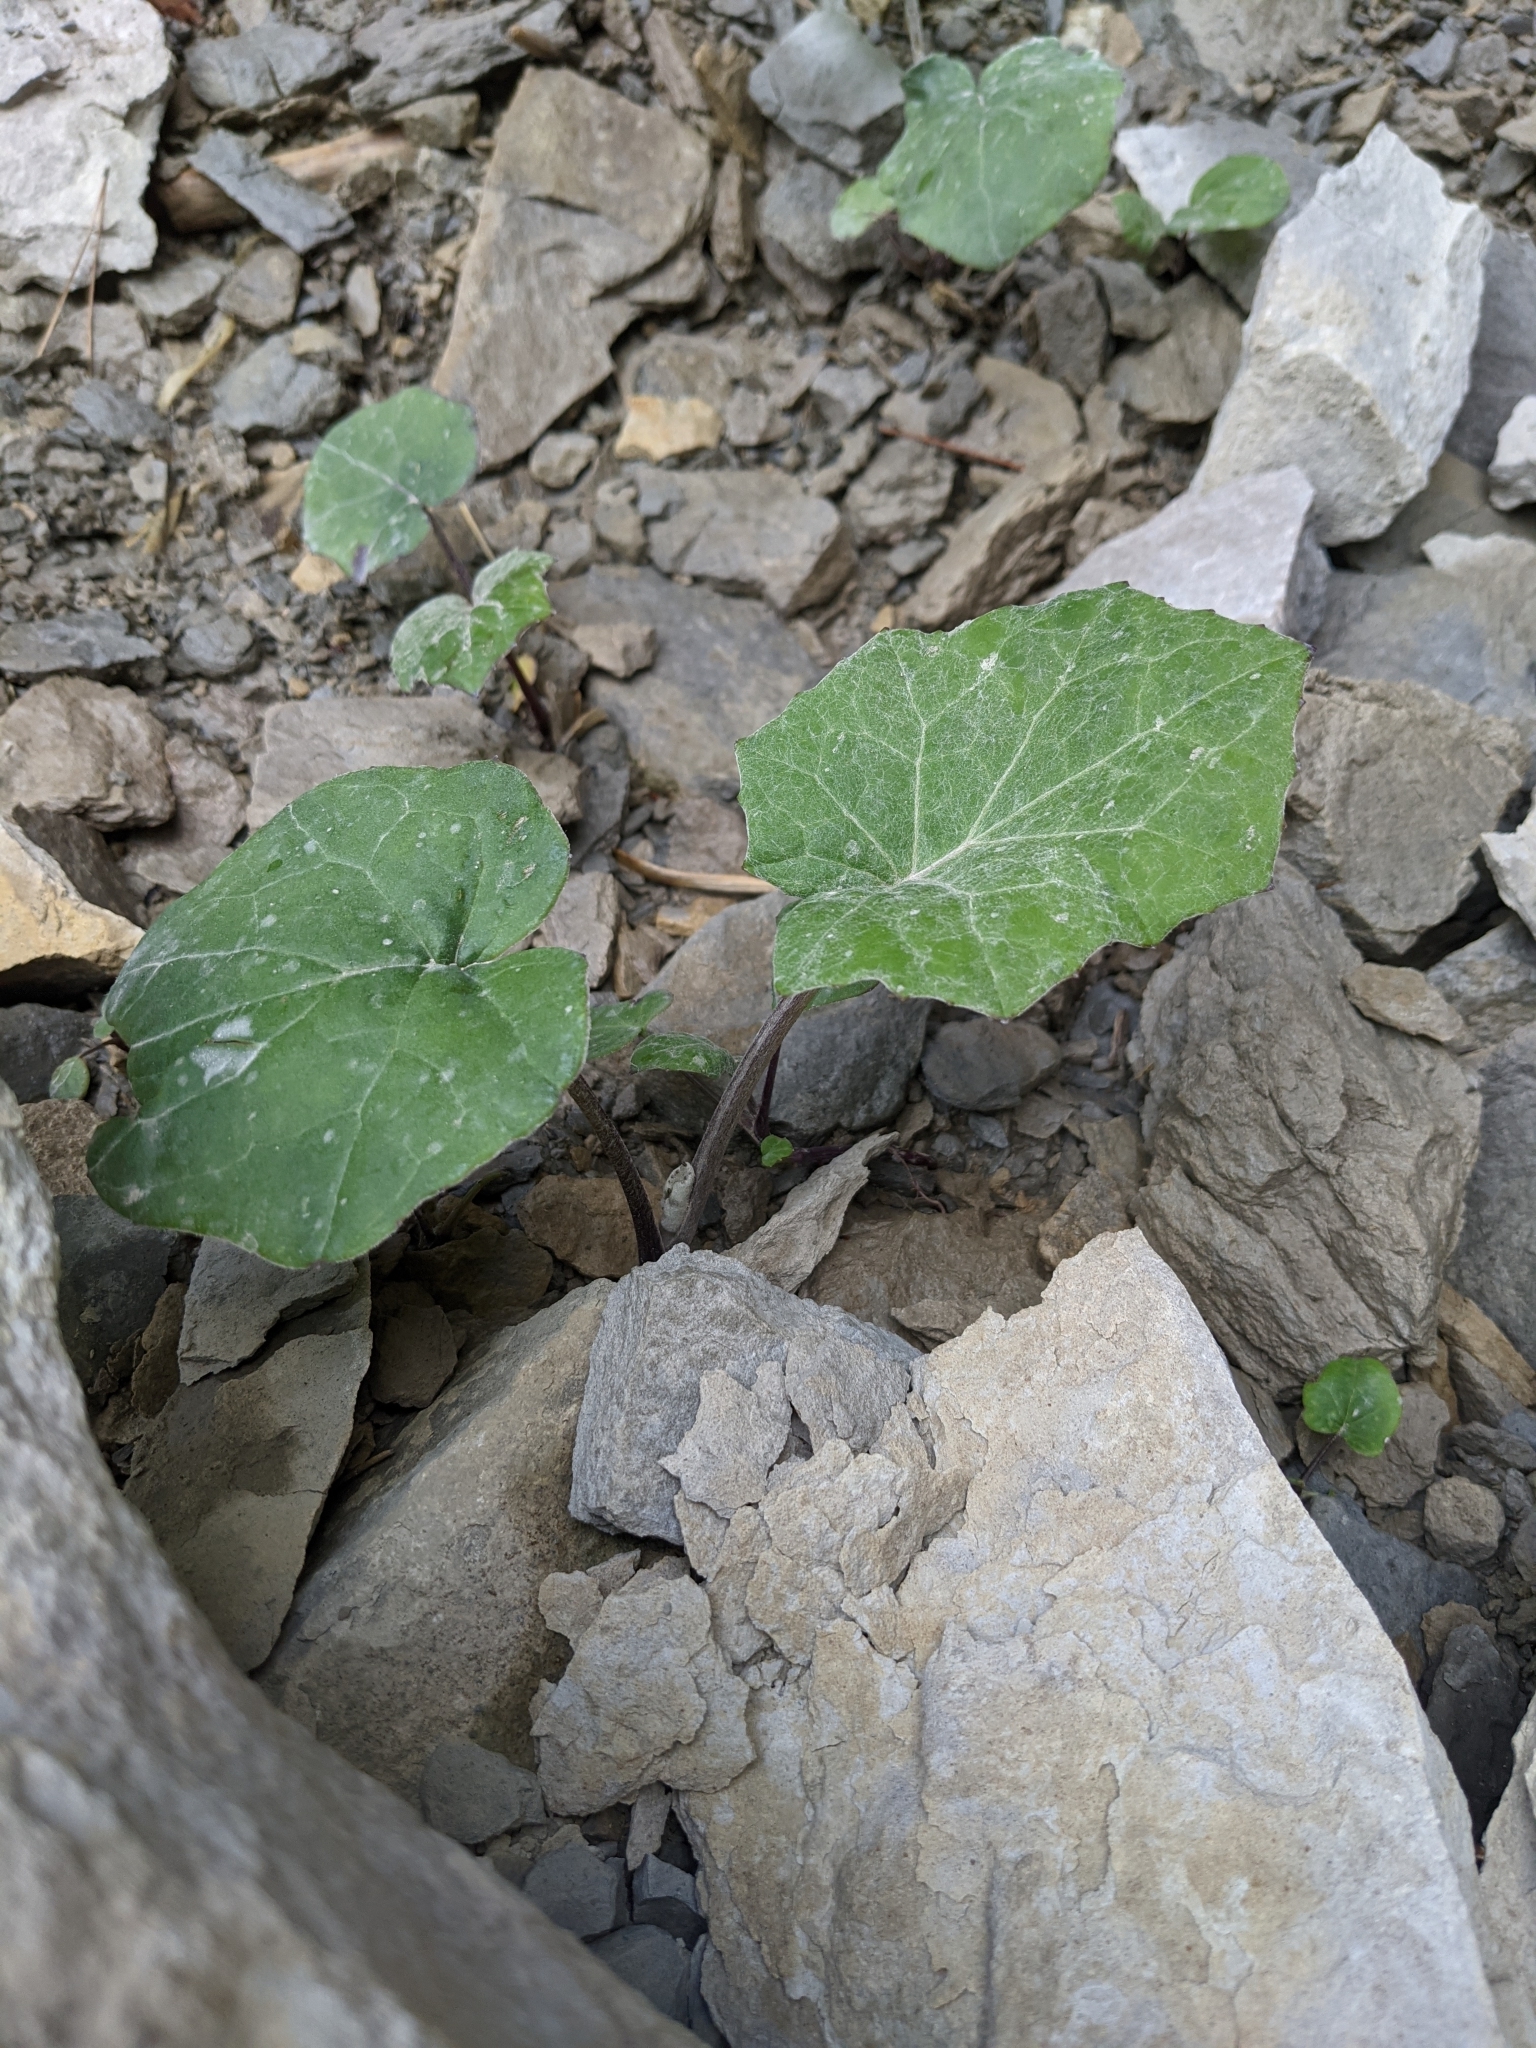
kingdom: Plantae
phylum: Tracheophyta
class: Magnoliopsida
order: Asterales
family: Asteraceae
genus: Tussilago
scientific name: Tussilago farfara
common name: Coltsfoot
